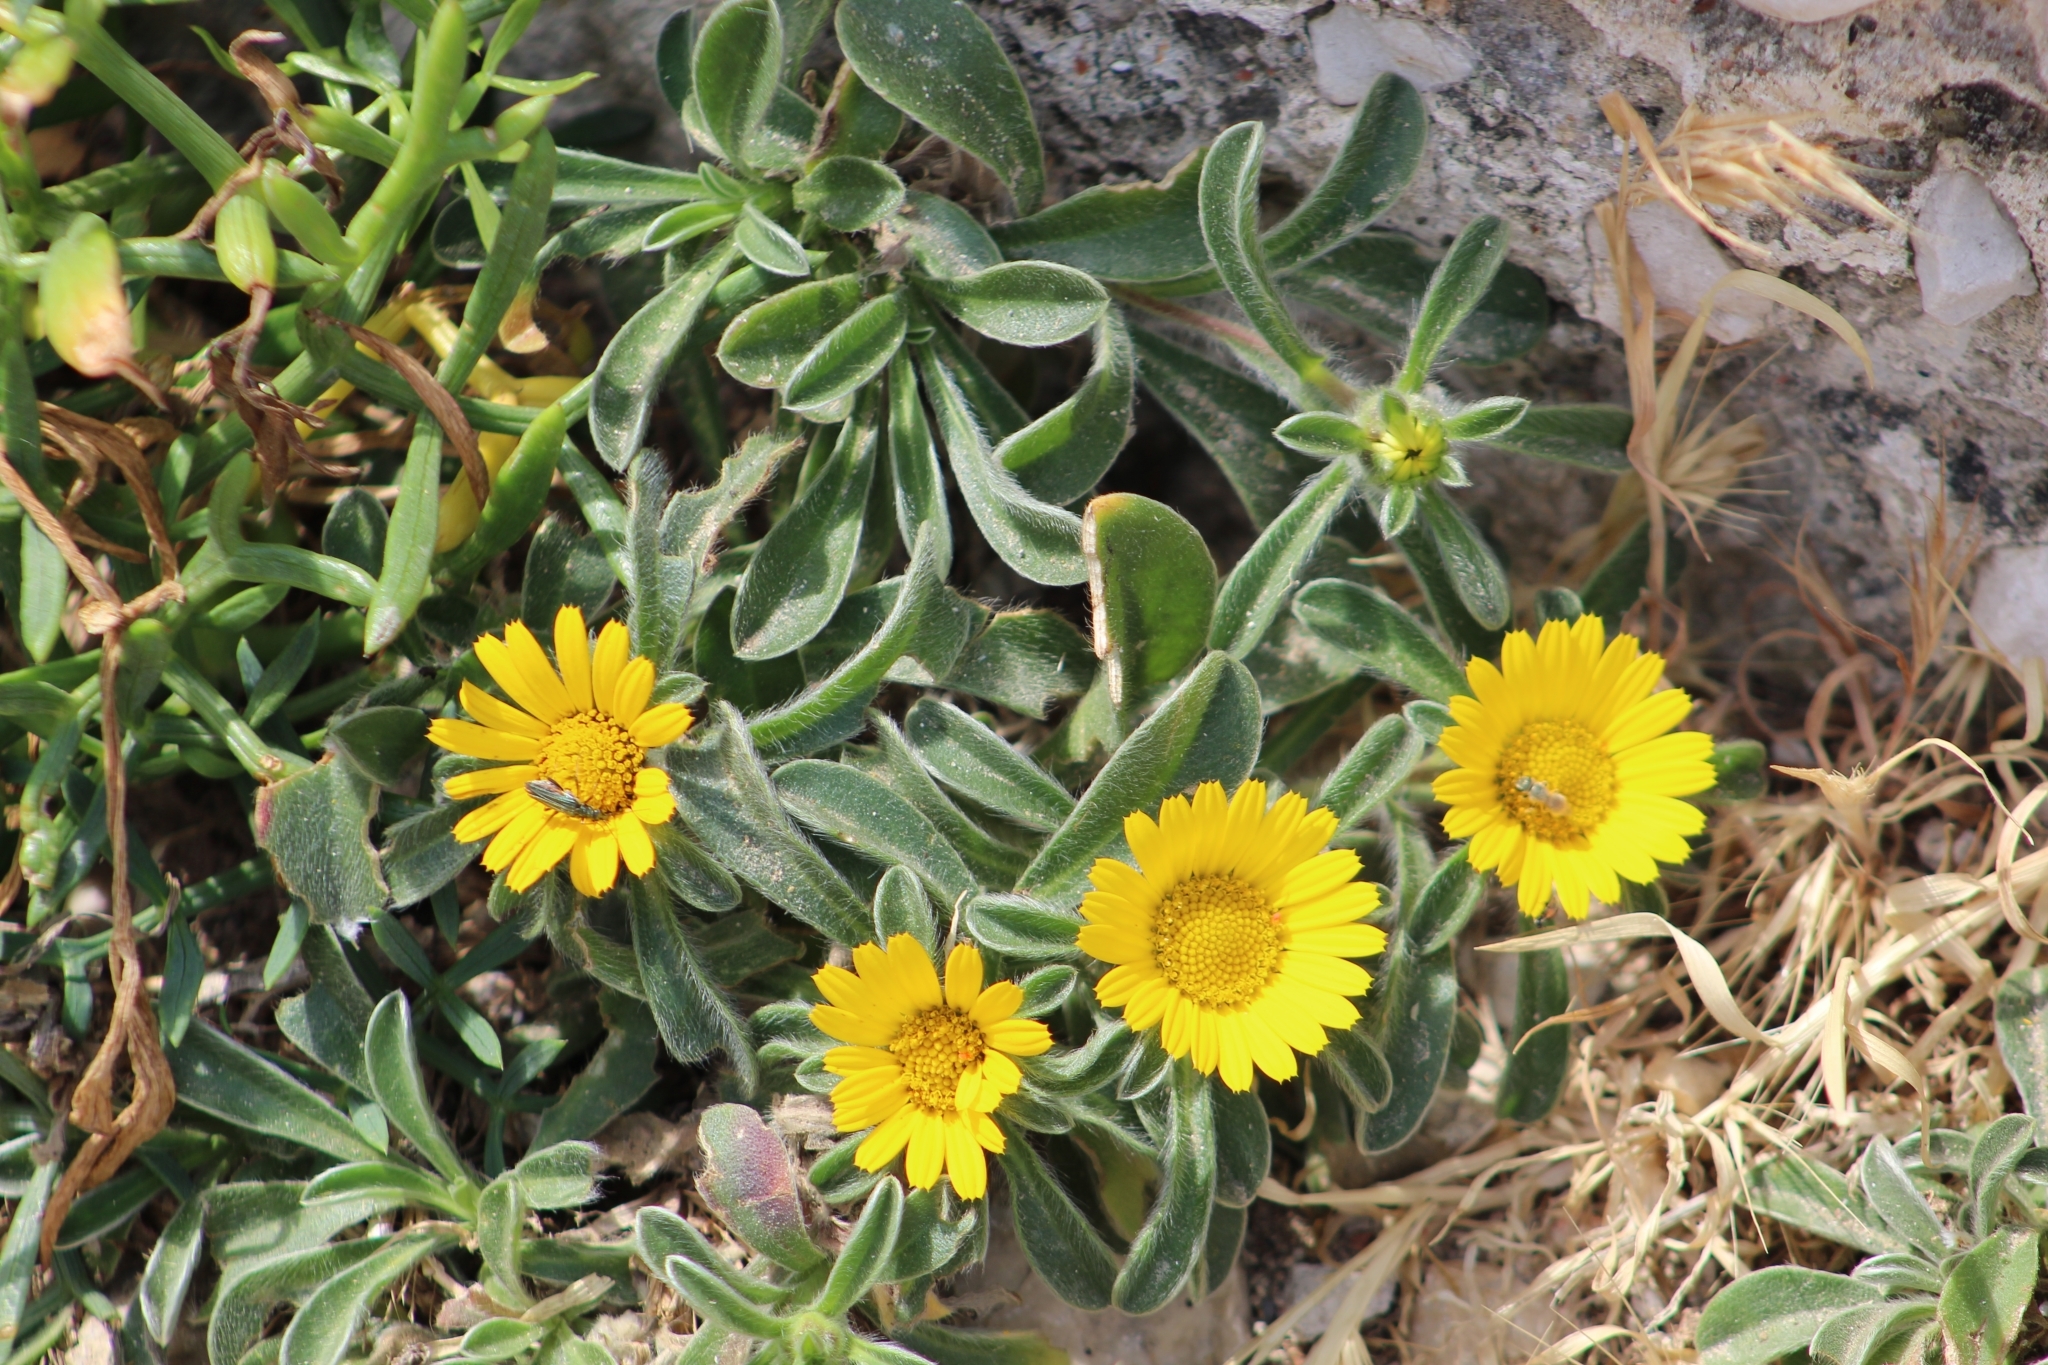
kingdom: Plantae
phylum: Tracheophyta
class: Magnoliopsida
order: Asterales
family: Asteraceae
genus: Pallenis
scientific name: Pallenis maritima
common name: Golden coin daisy
